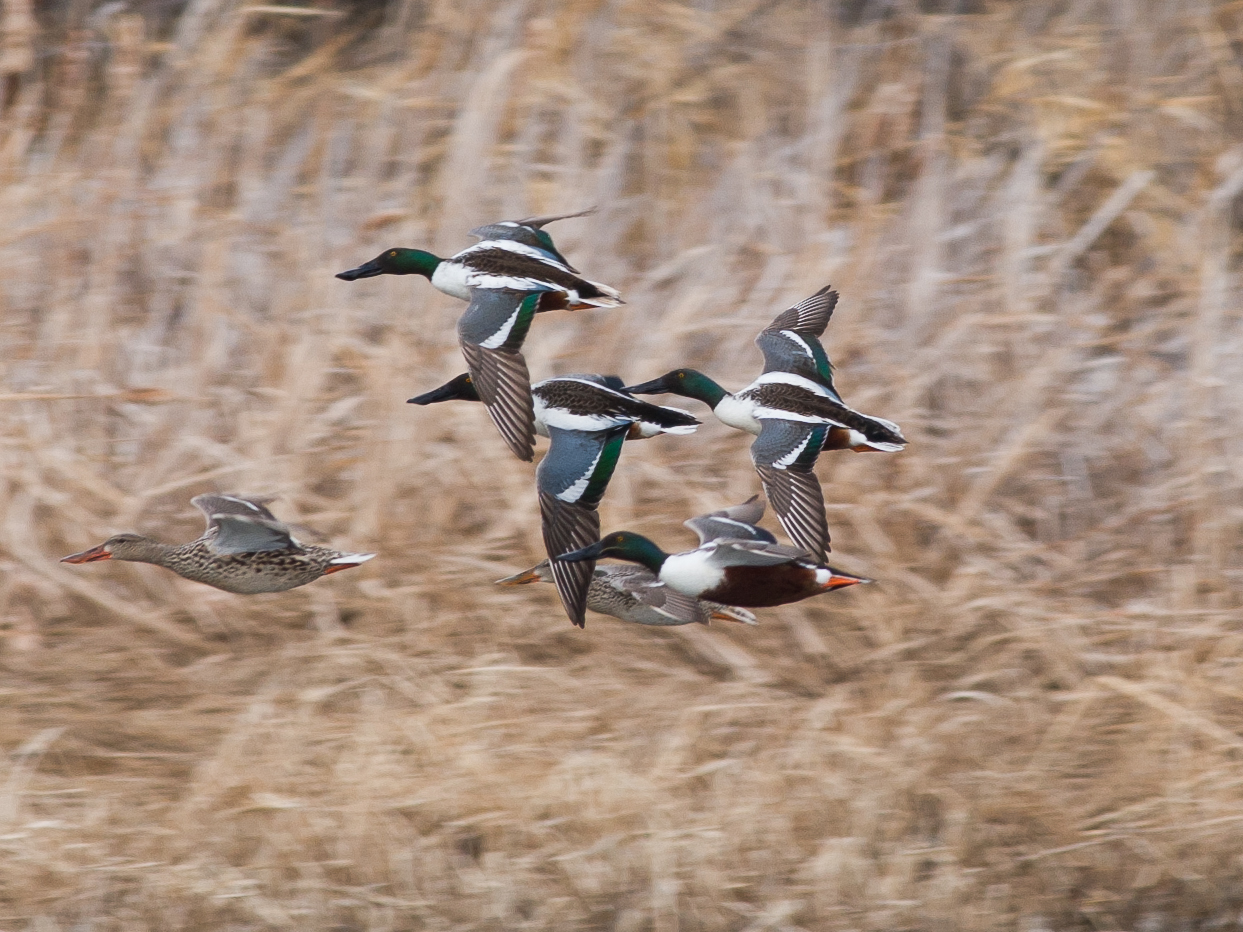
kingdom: Animalia
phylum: Chordata
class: Aves
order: Anseriformes
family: Anatidae
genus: Spatula
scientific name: Spatula clypeata
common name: Northern shoveler
